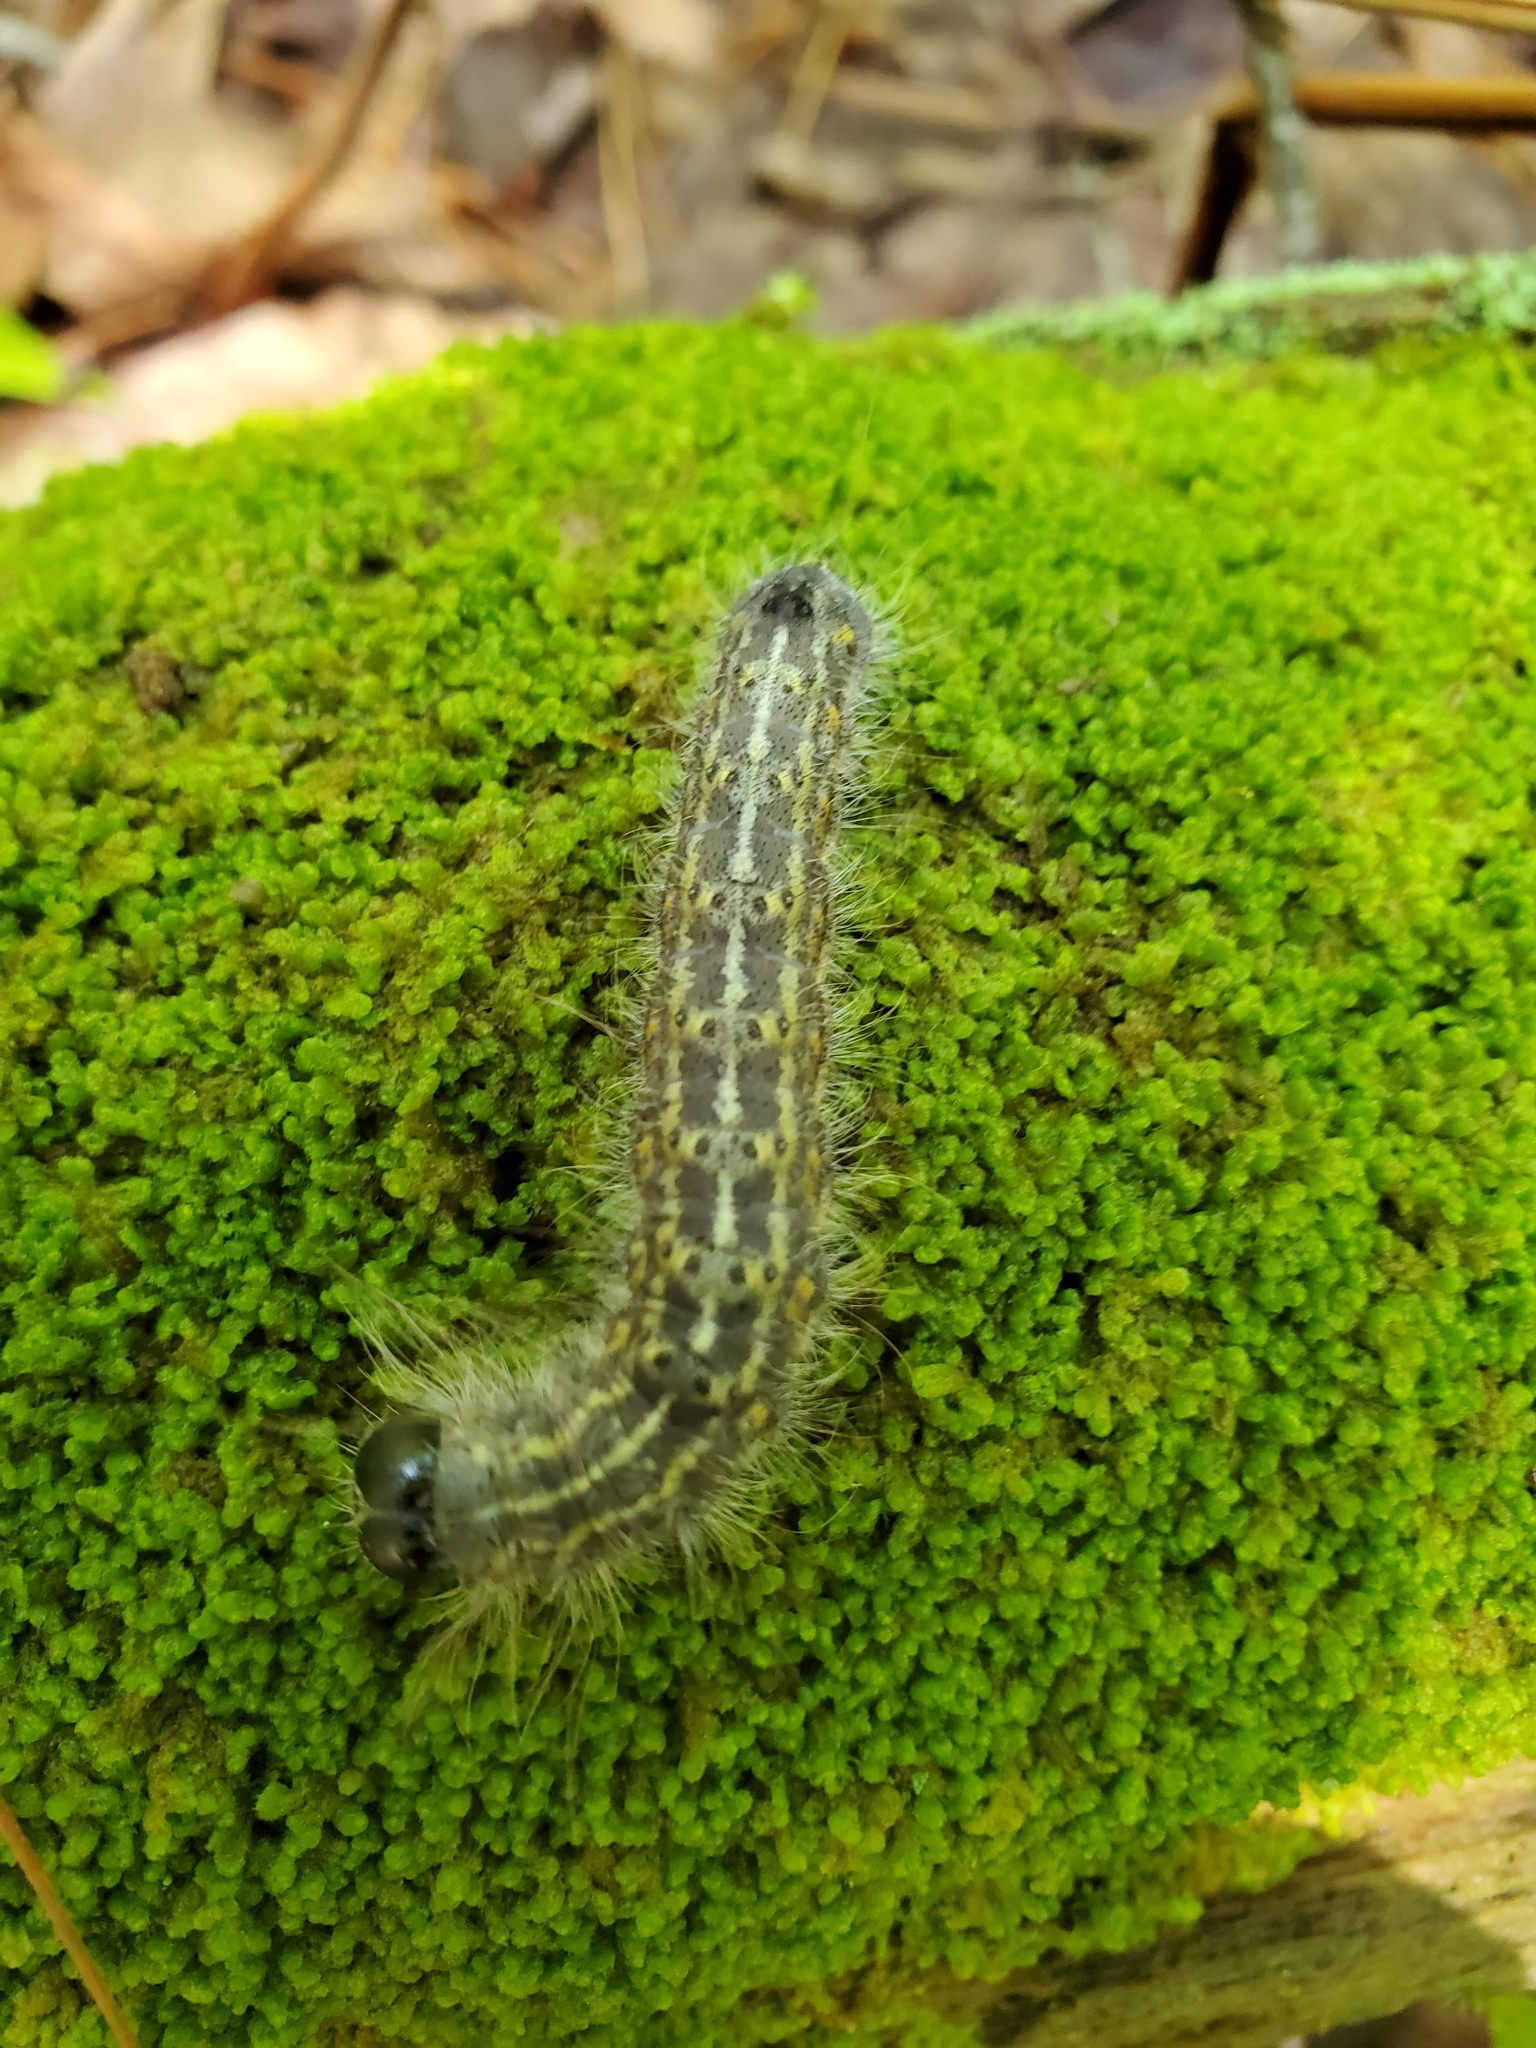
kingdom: Animalia
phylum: Arthropoda
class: Insecta
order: Lepidoptera
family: Noctuidae
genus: Acronicta
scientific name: Acronicta lobeliae
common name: Greater oak dagger
